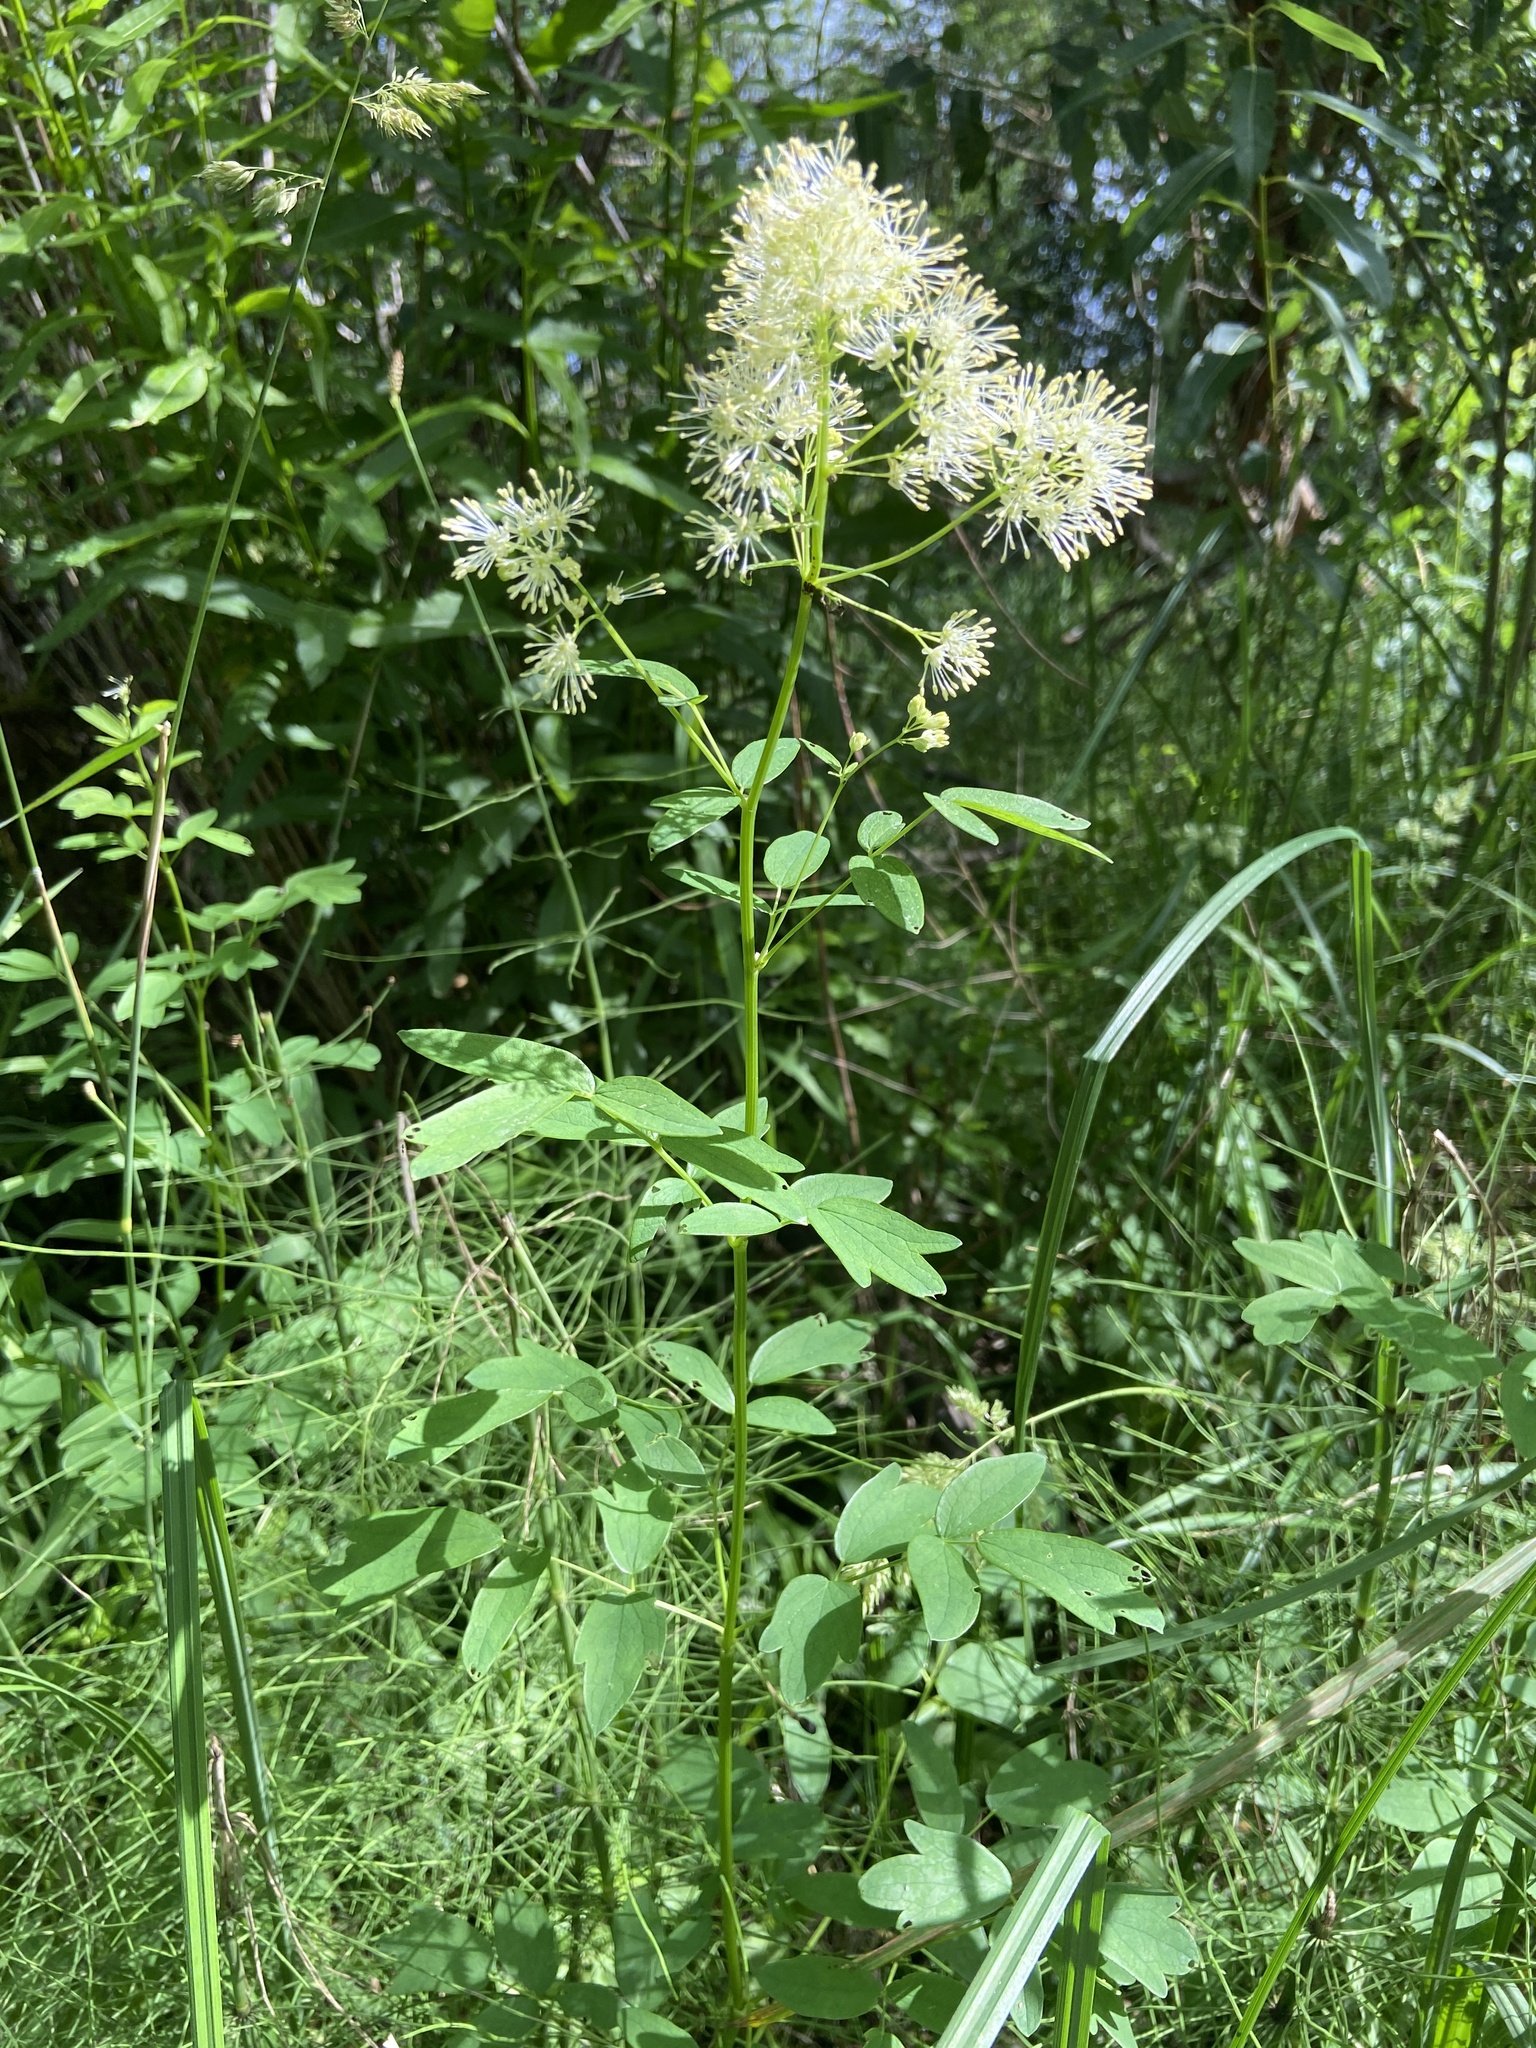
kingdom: Plantae
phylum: Tracheophyta
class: Magnoliopsida
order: Ranunculales
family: Ranunculaceae
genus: Thalictrum
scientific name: Thalictrum flavum
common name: Common meadow-rue
